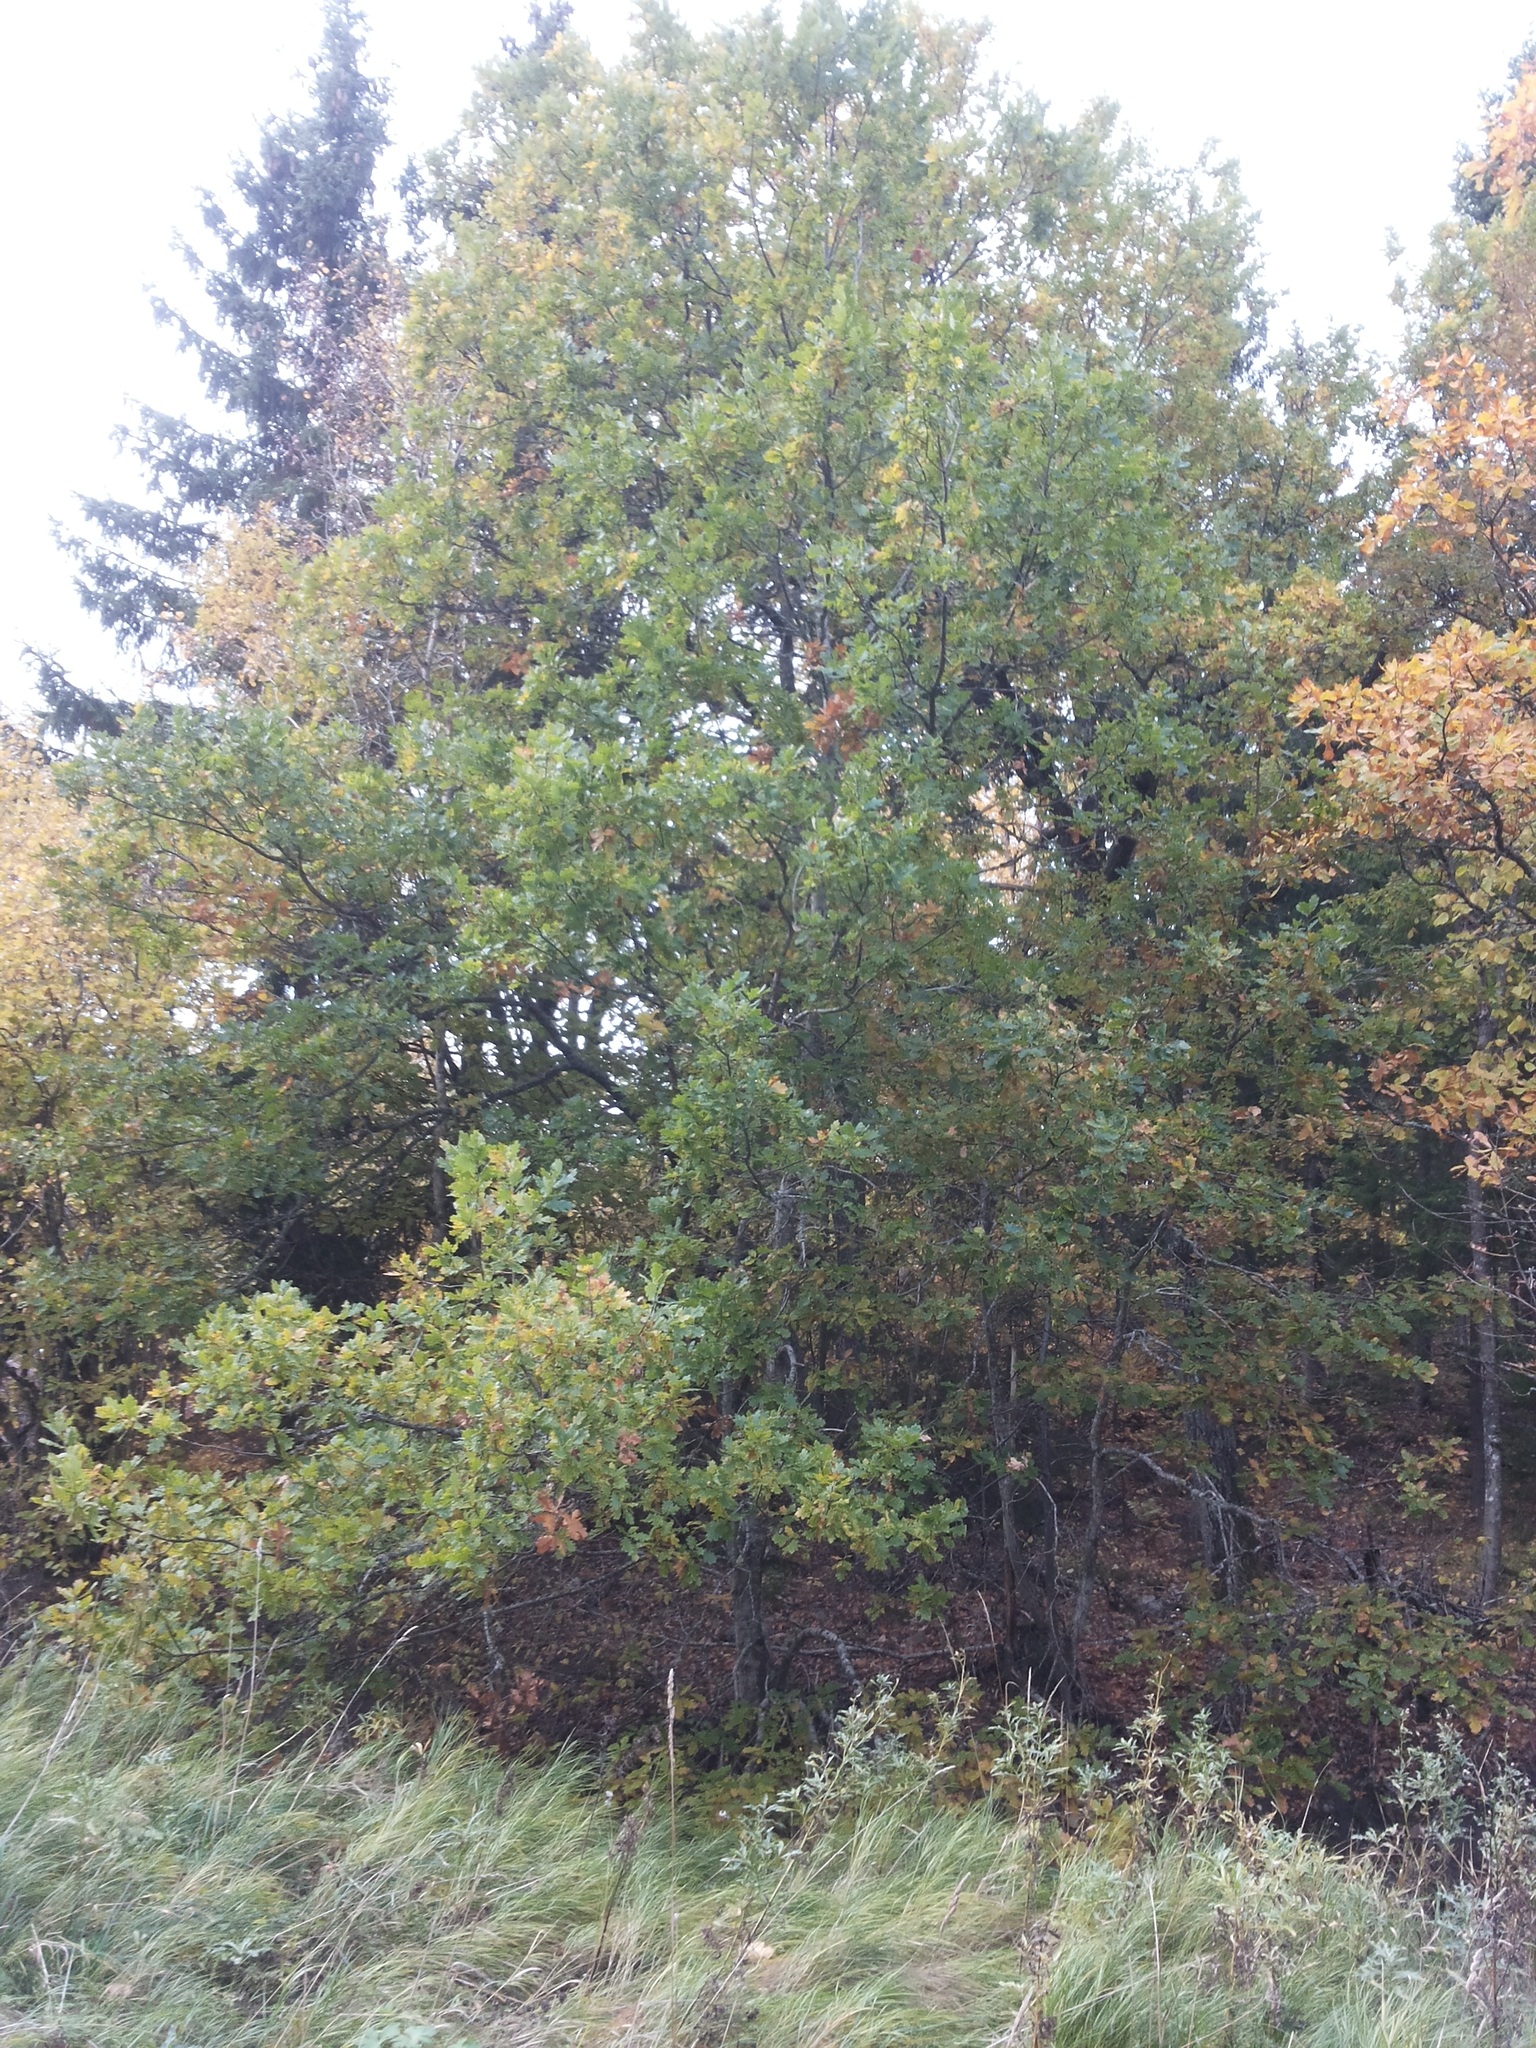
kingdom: Plantae
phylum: Tracheophyta
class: Magnoliopsida
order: Fagales
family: Fagaceae
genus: Quercus
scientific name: Quercus robur
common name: Pedunculate oak
